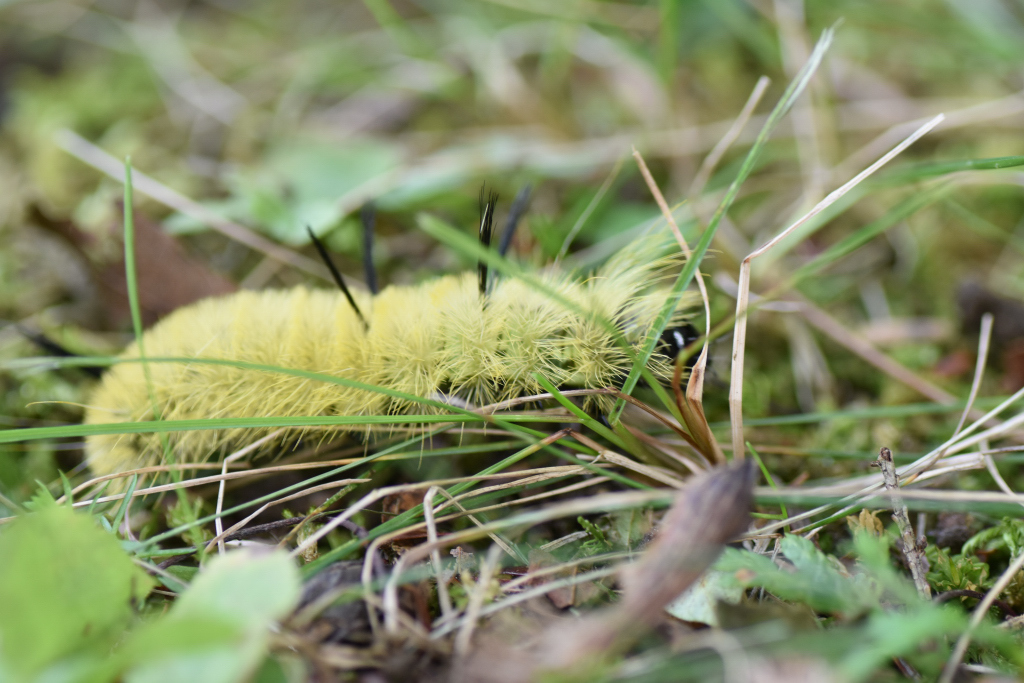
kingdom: Animalia
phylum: Arthropoda
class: Insecta
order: Lepidoptera
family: Noctuidae
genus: Acronicta
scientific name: Acronicta americana
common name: American dagger
